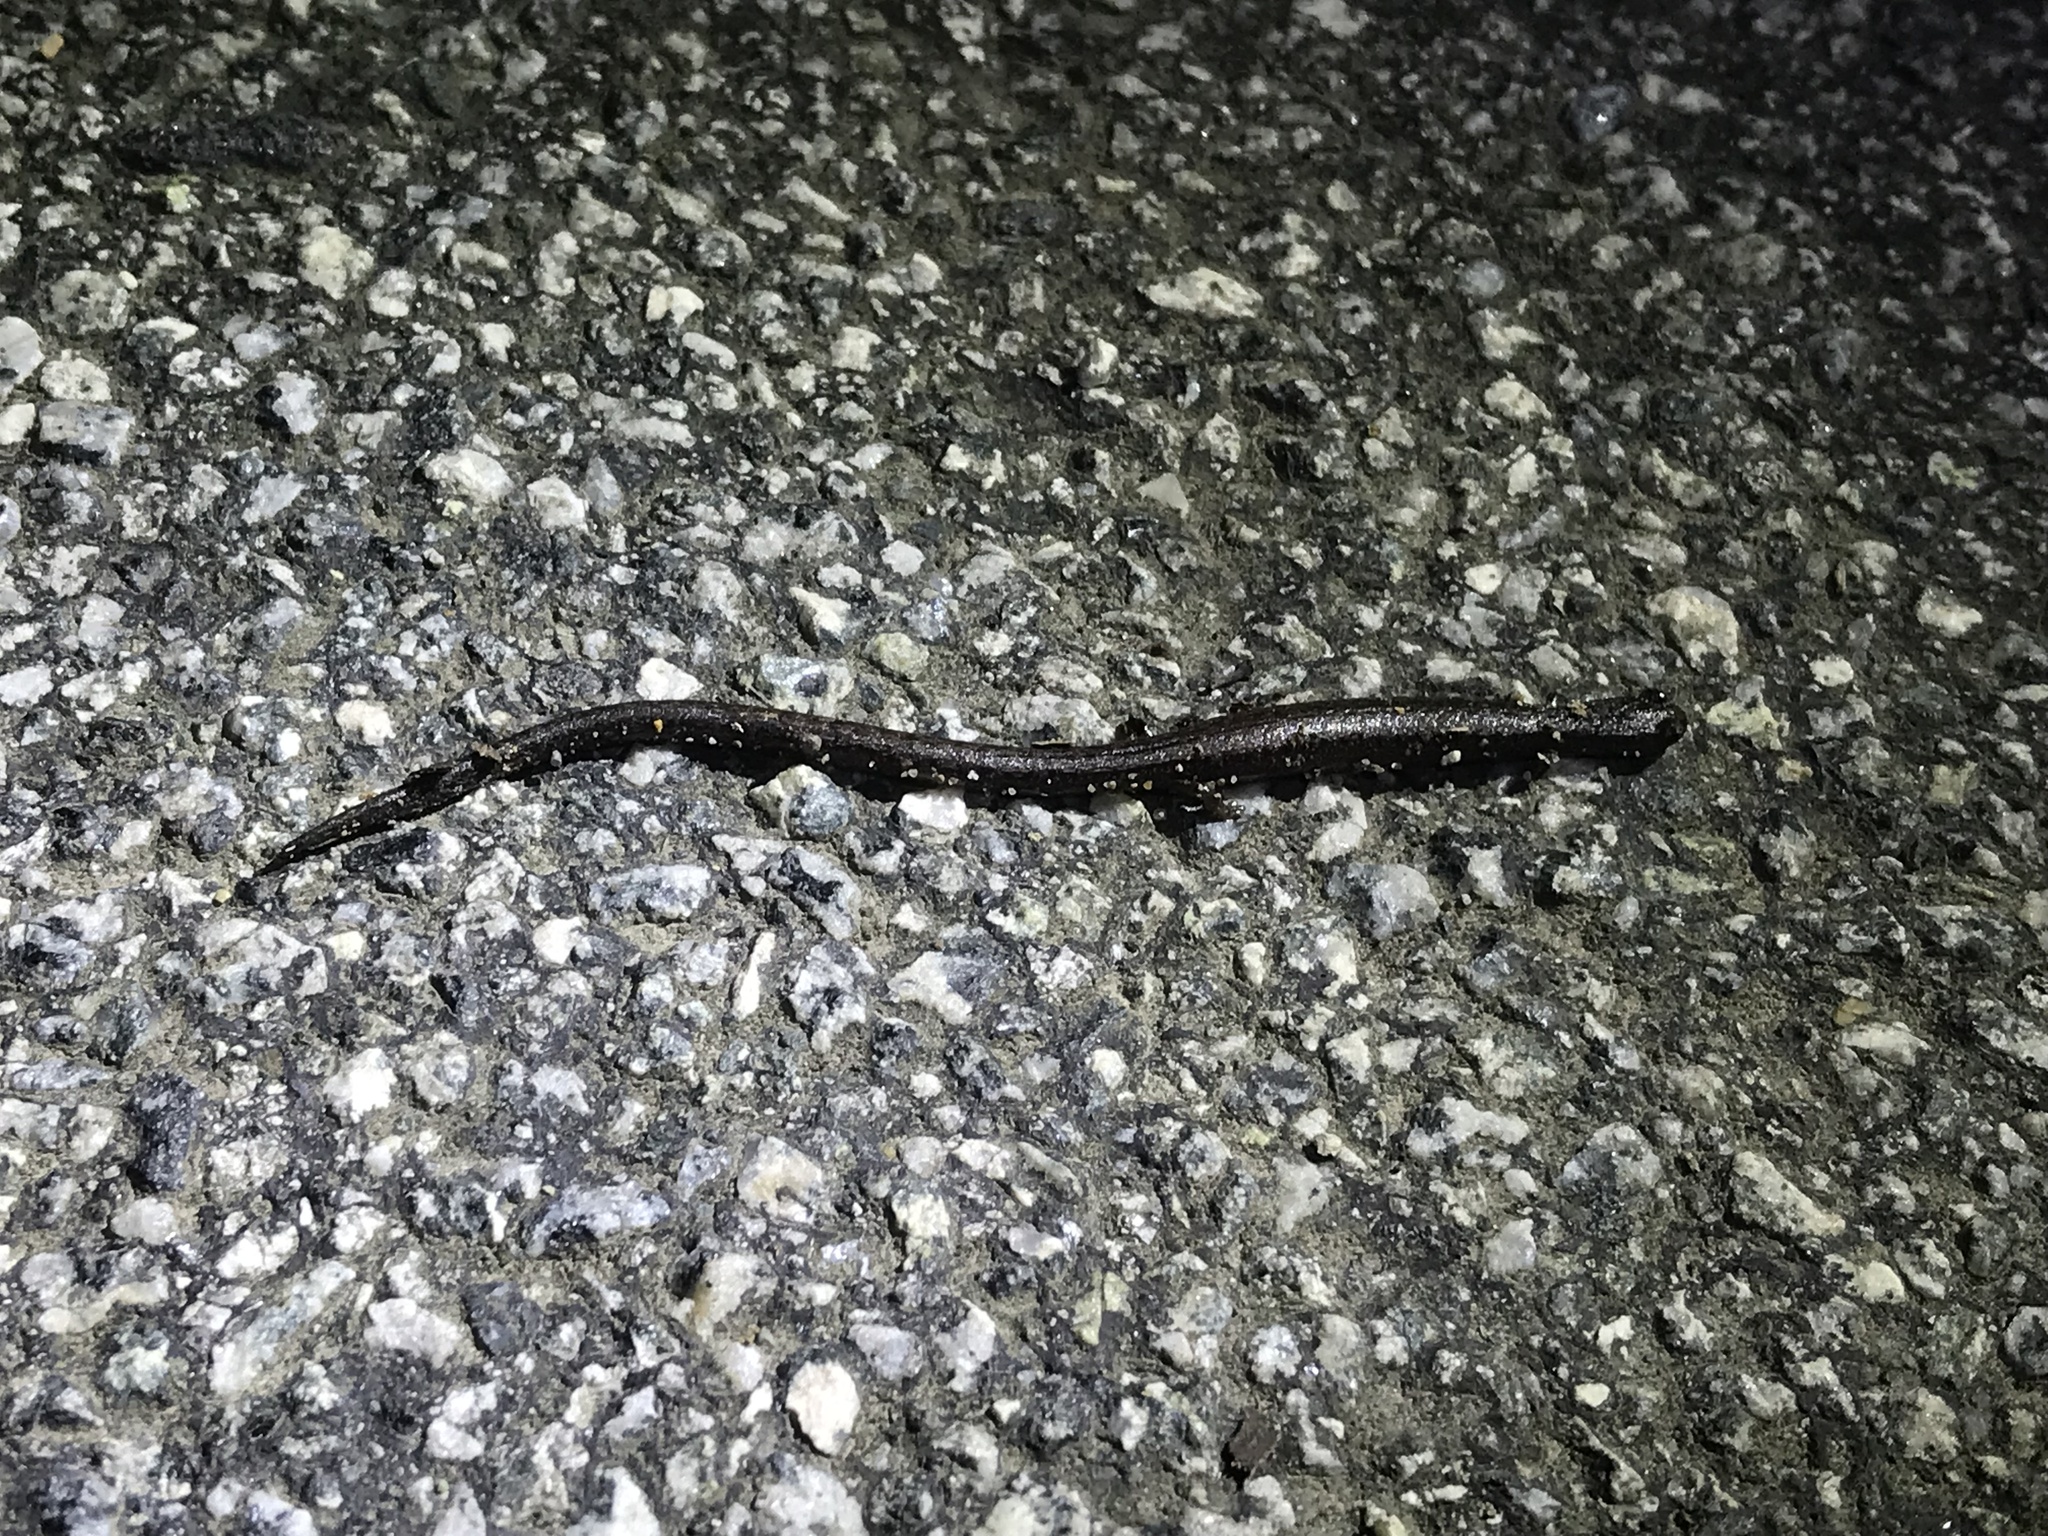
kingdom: Animalia
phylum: Chordata
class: Amphibia
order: Caudata
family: Plethodontidae
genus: Batrachoseps
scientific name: Batrachoseps attenuatus
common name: California slender salamander
